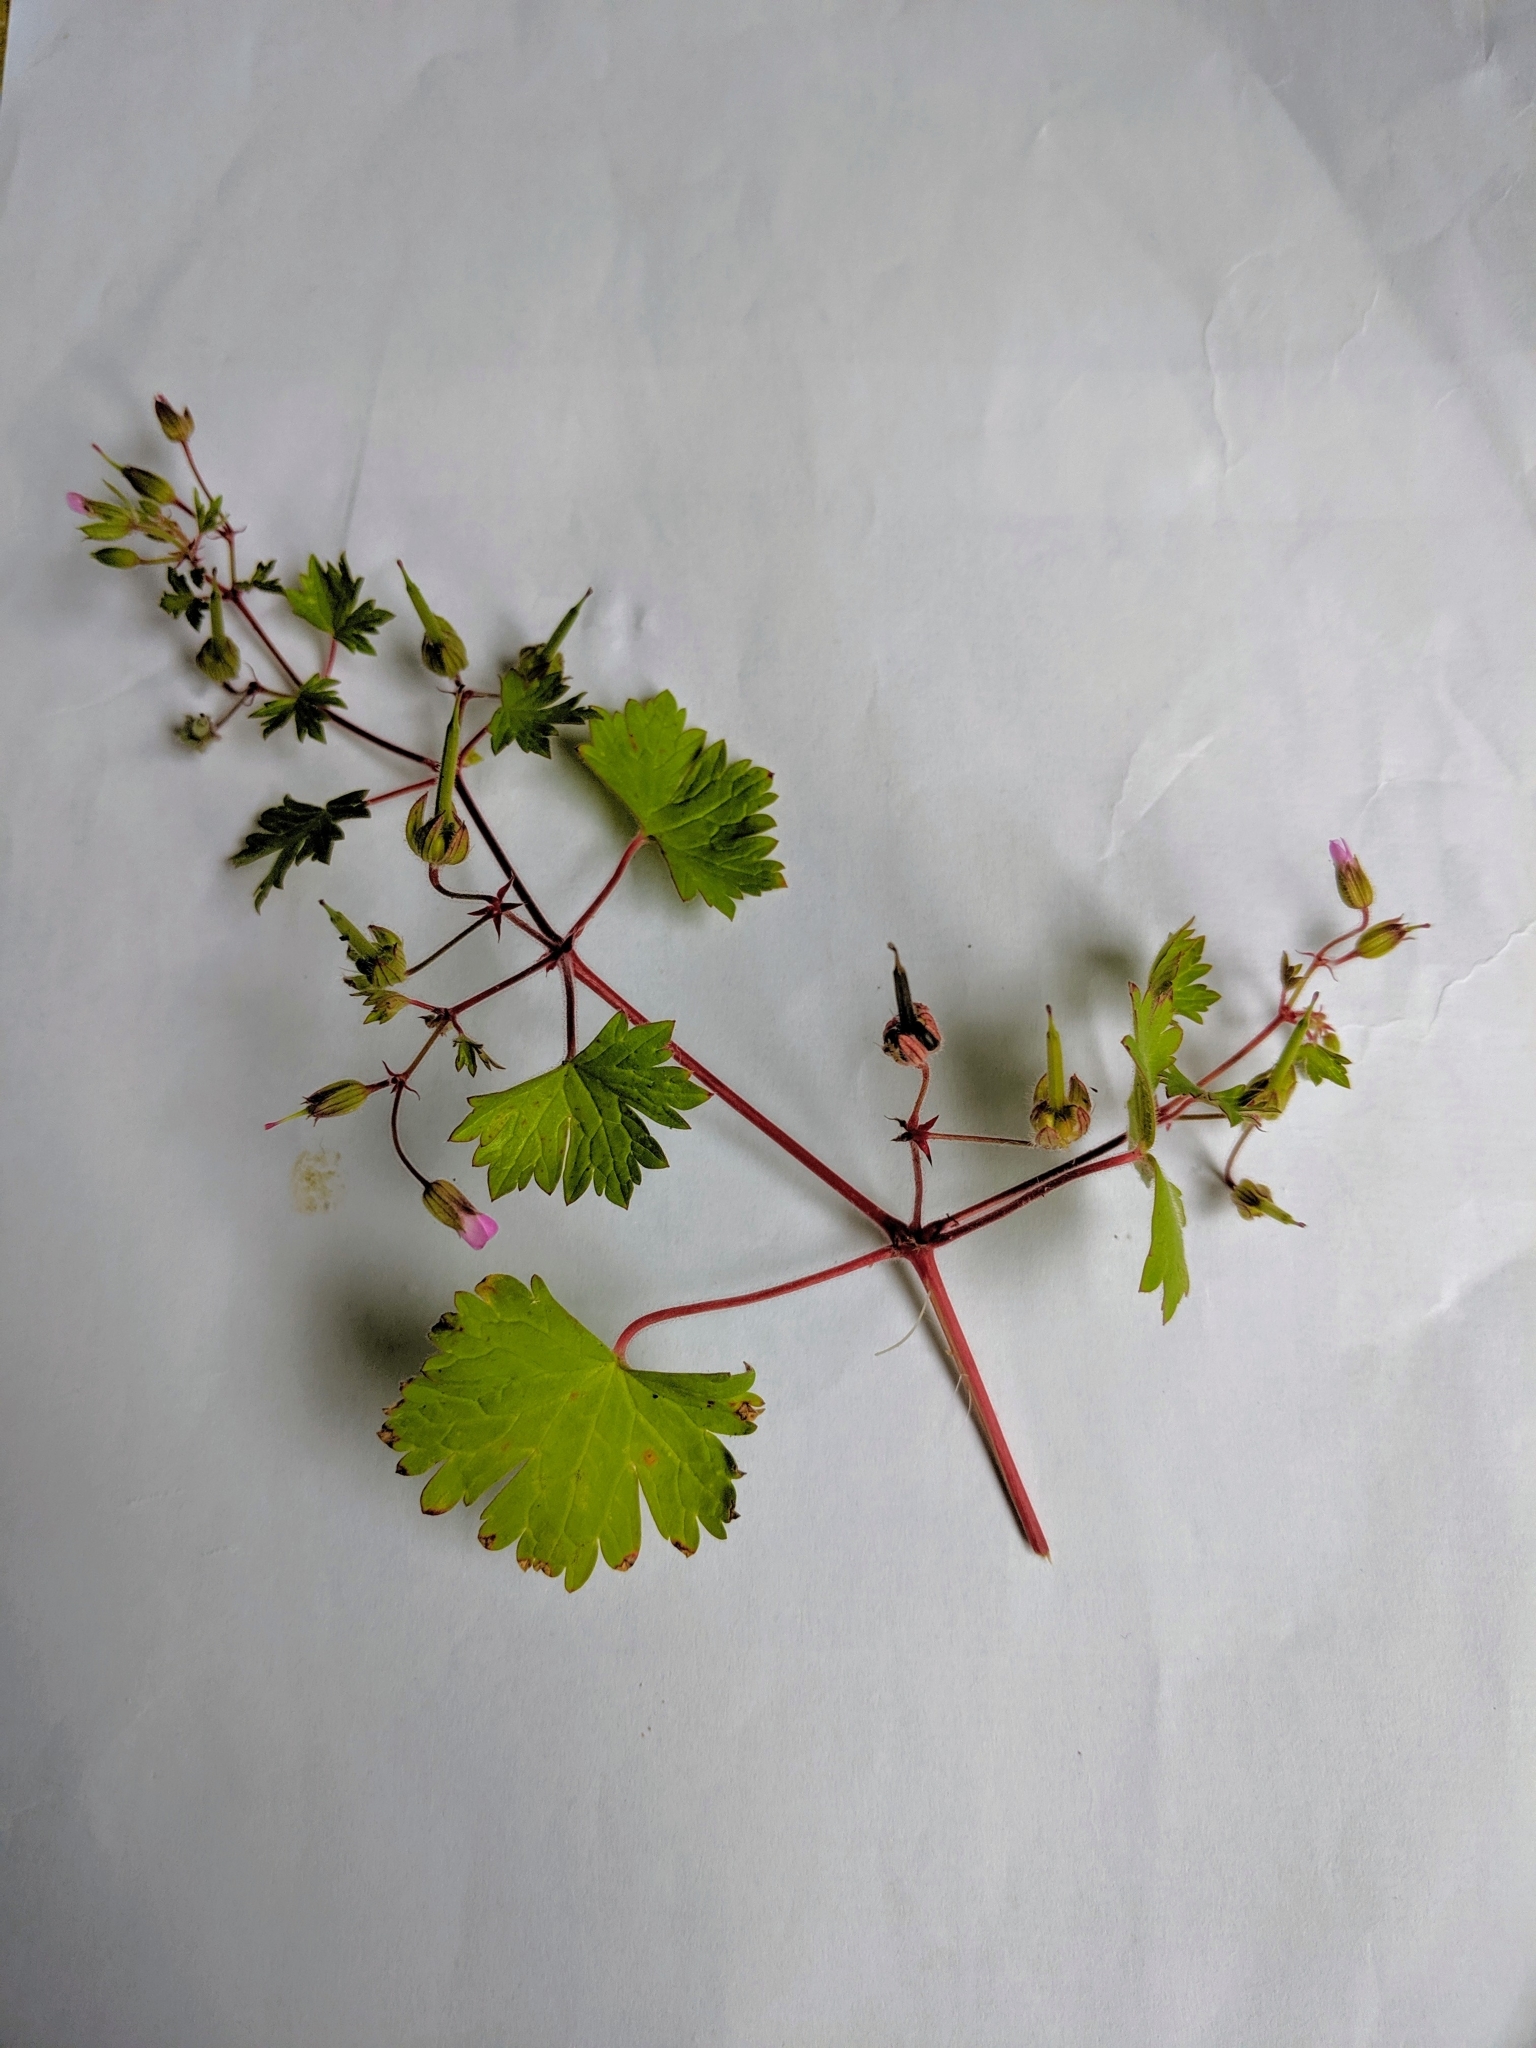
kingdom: Plantae
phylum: Tracheophyta
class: Magnoliopsida
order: Geraniales
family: Geraniaceae
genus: Geranium
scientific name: Geranium rotundifolium
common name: Round-leaved crane's-bill
